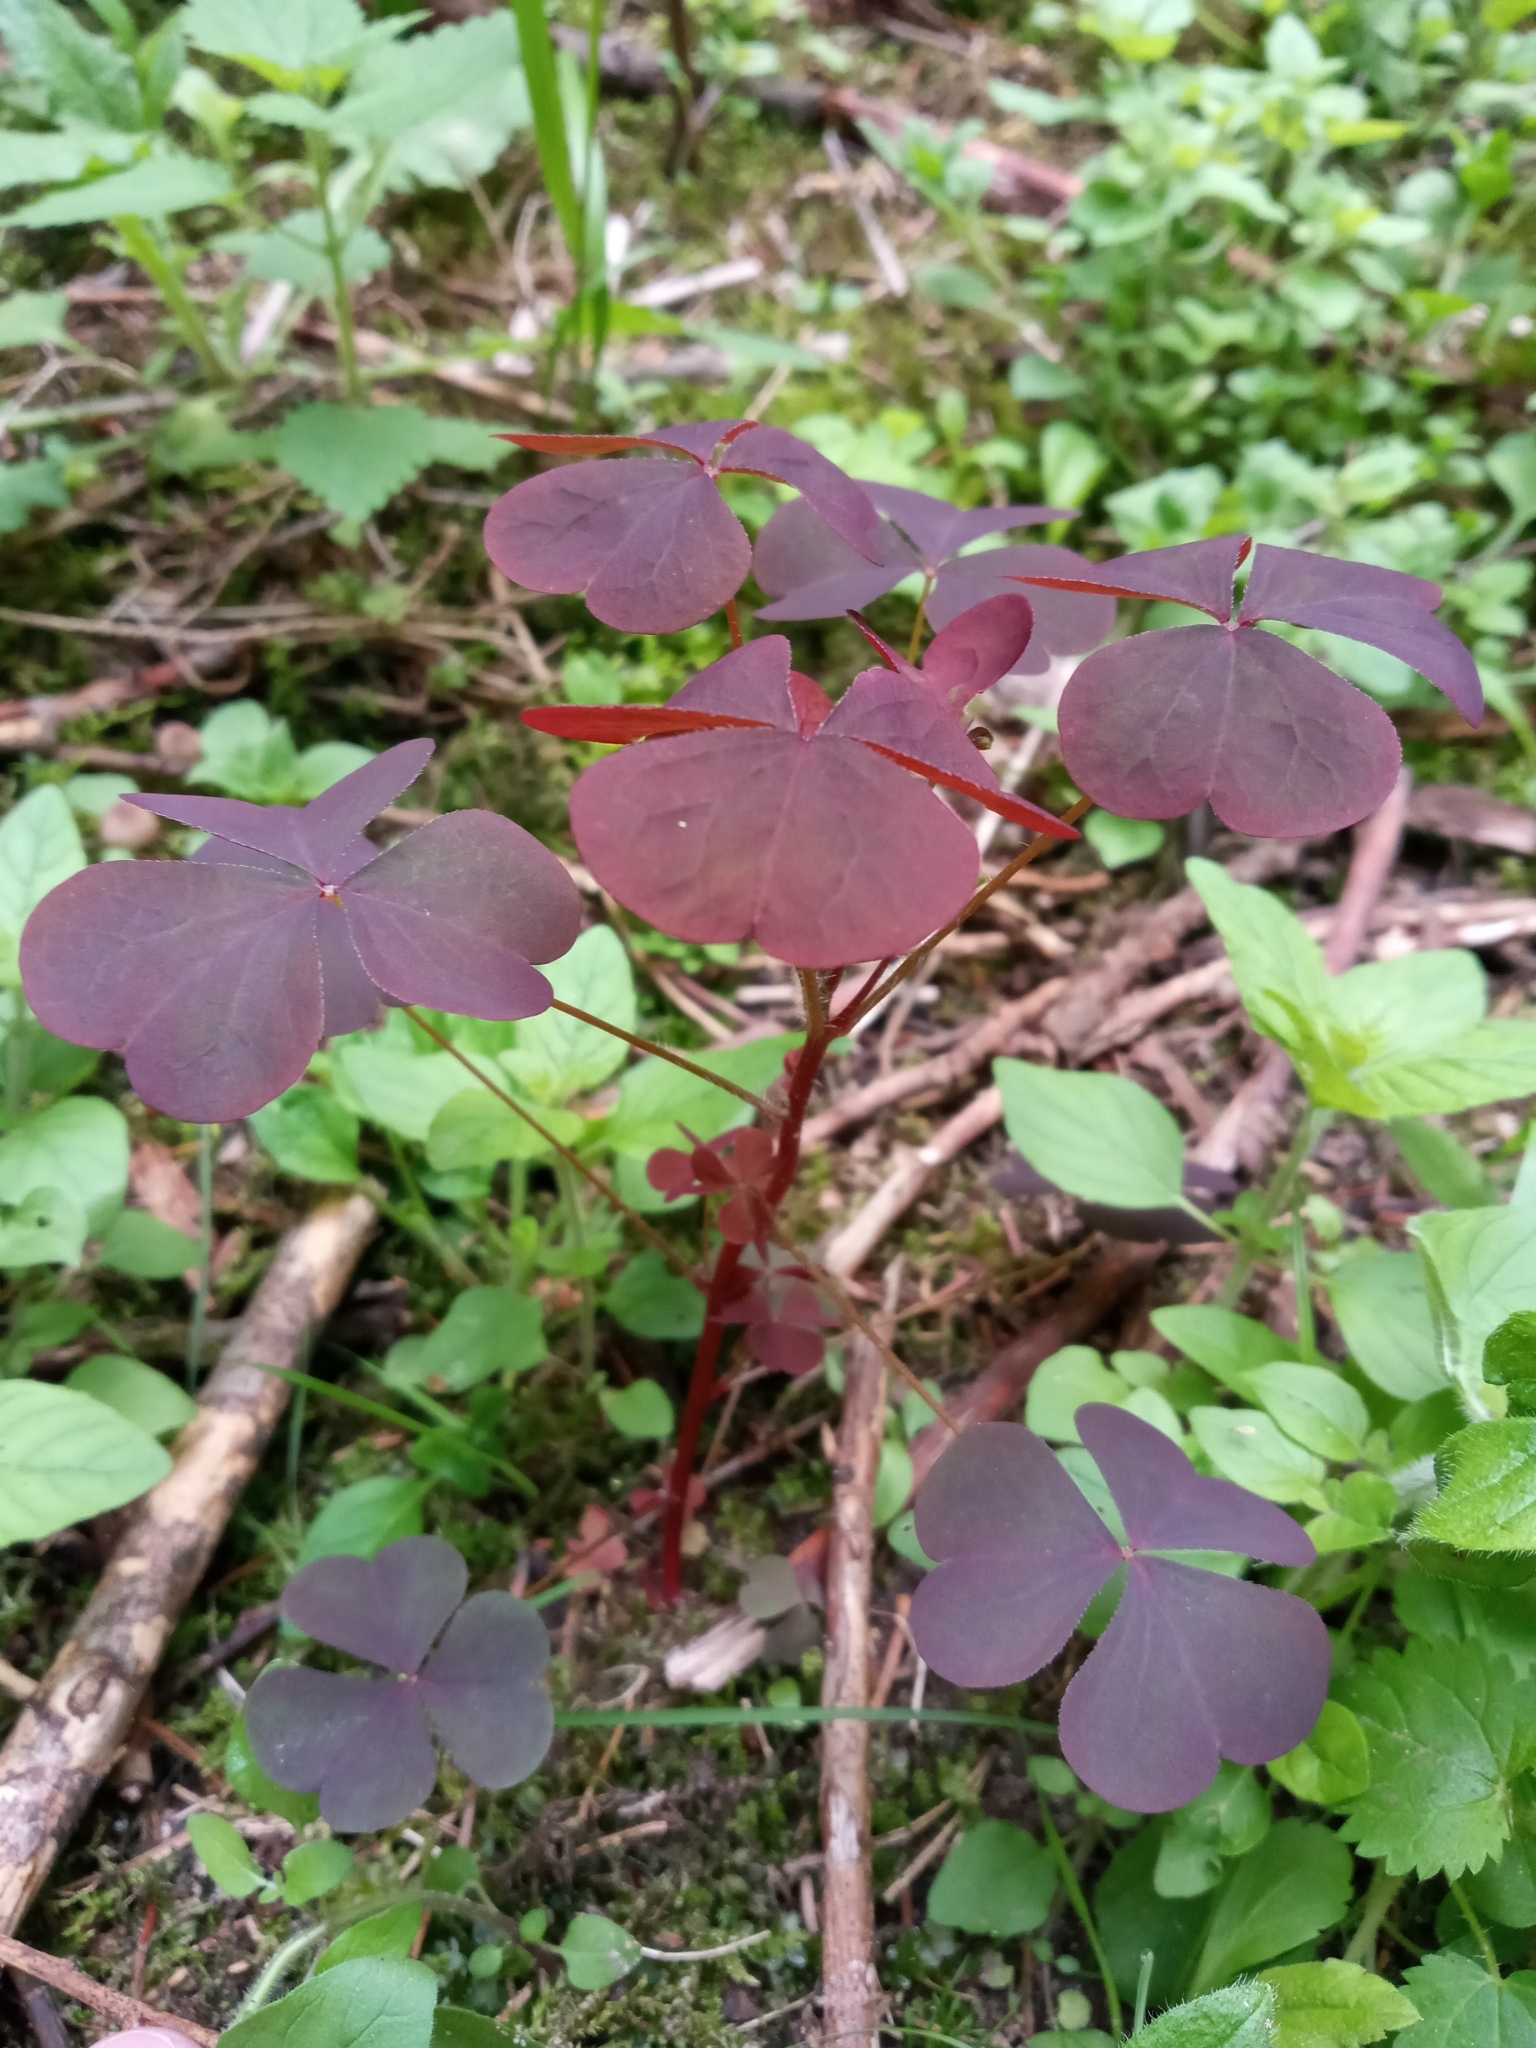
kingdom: Plantae
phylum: Tracheophyta
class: Magnoliopsida
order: Oxalidales
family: Oxalidaceae
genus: Oxalis
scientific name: Oxalis stricta
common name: Upright yellow-sorrel
